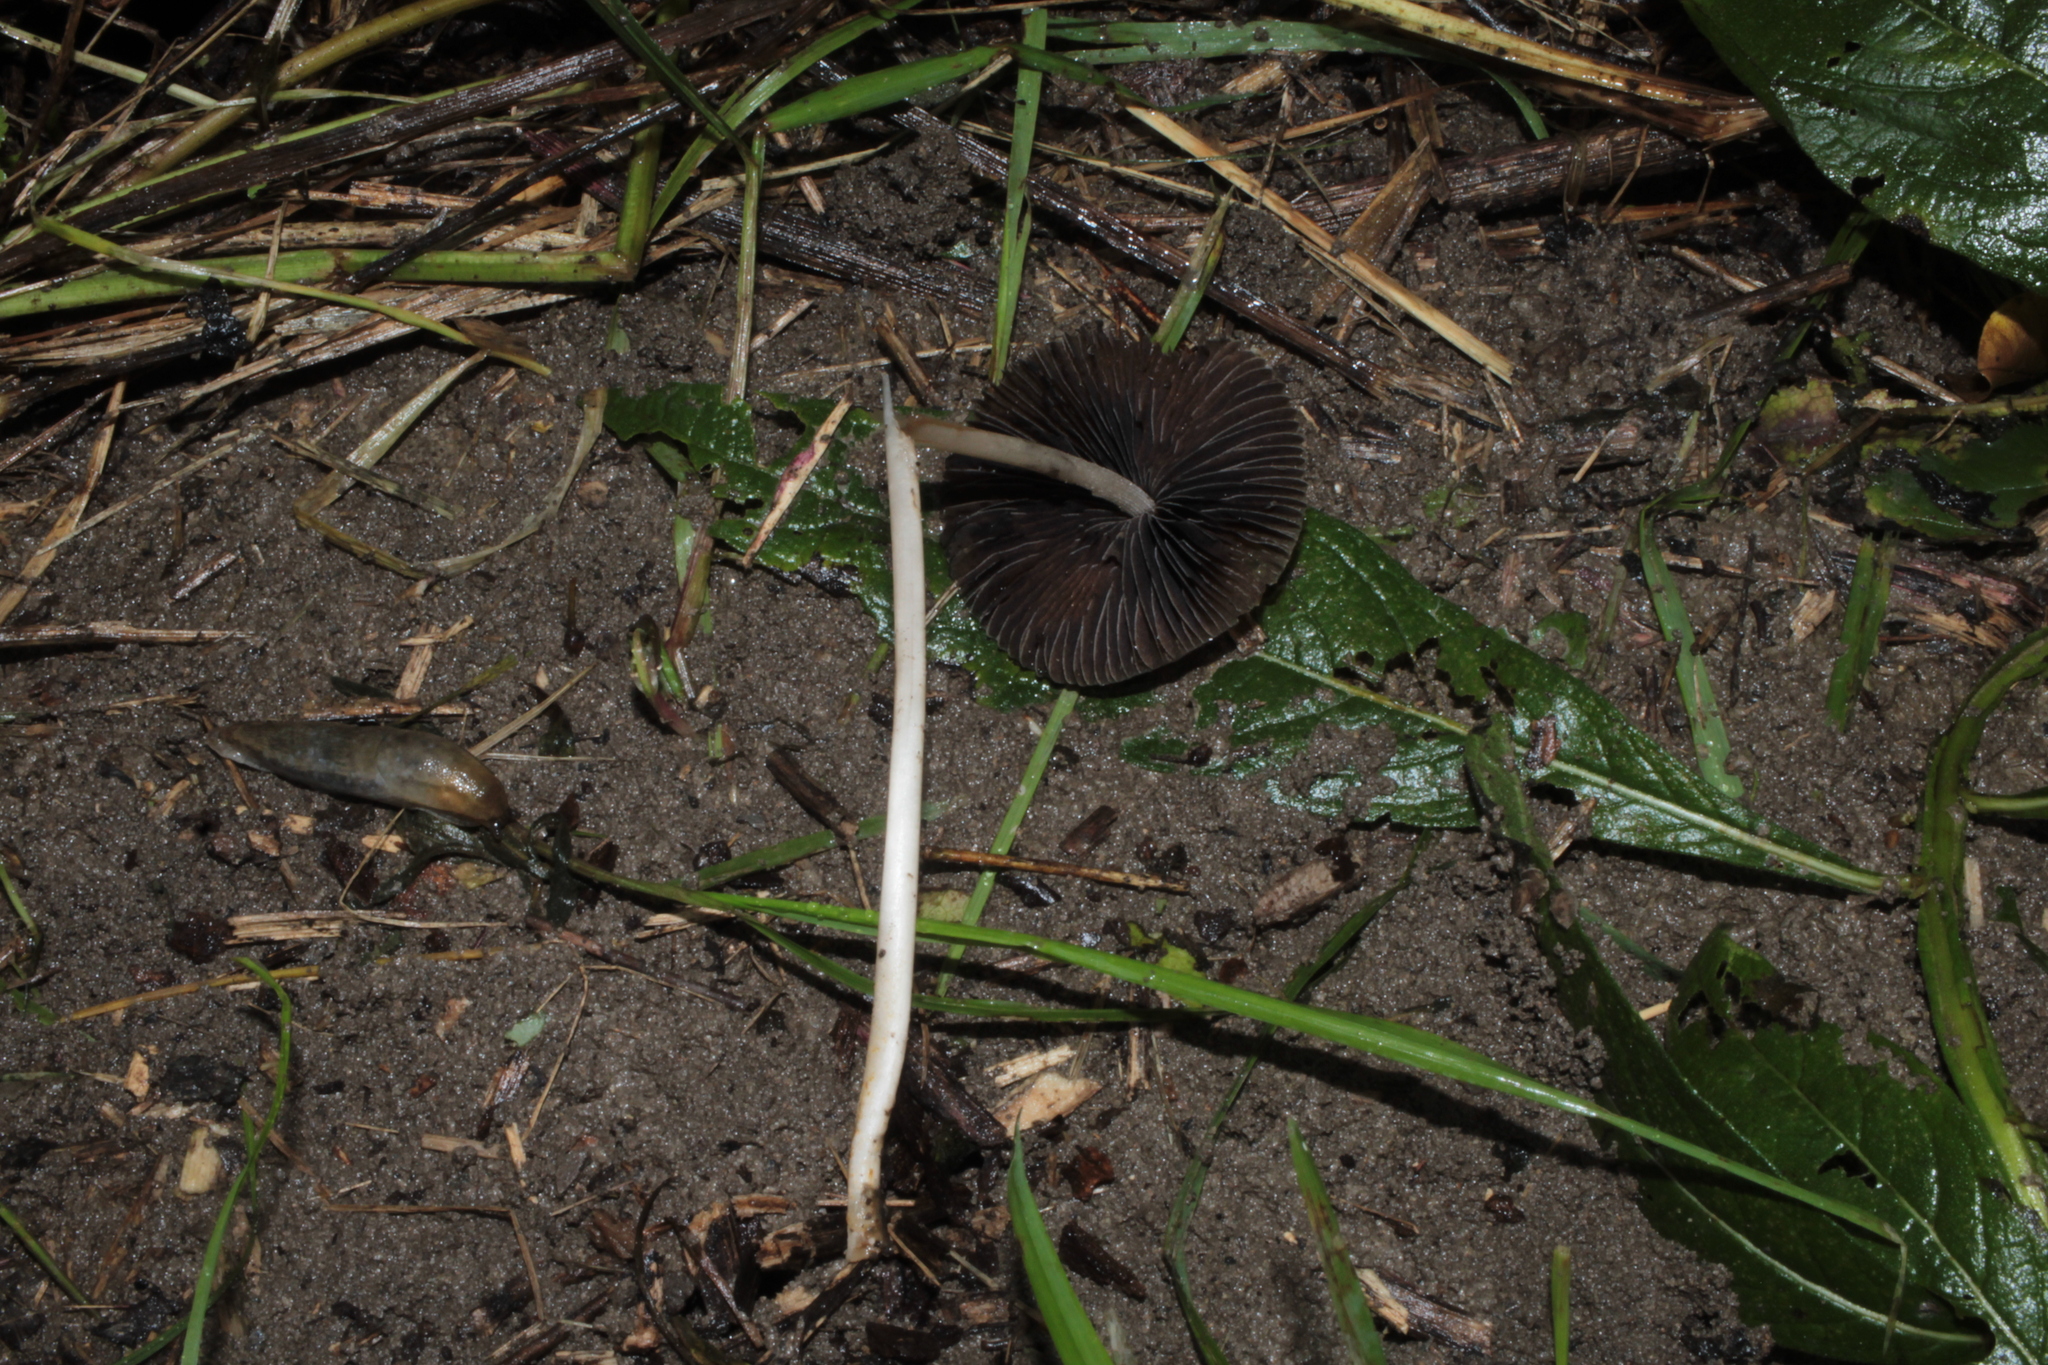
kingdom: Fungi
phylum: Basidiomycota
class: Agaricomycetes
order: Agaricales
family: Psathyrellaceae
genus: Parasola
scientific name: Parasola conopilea
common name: Conical brittlestem
